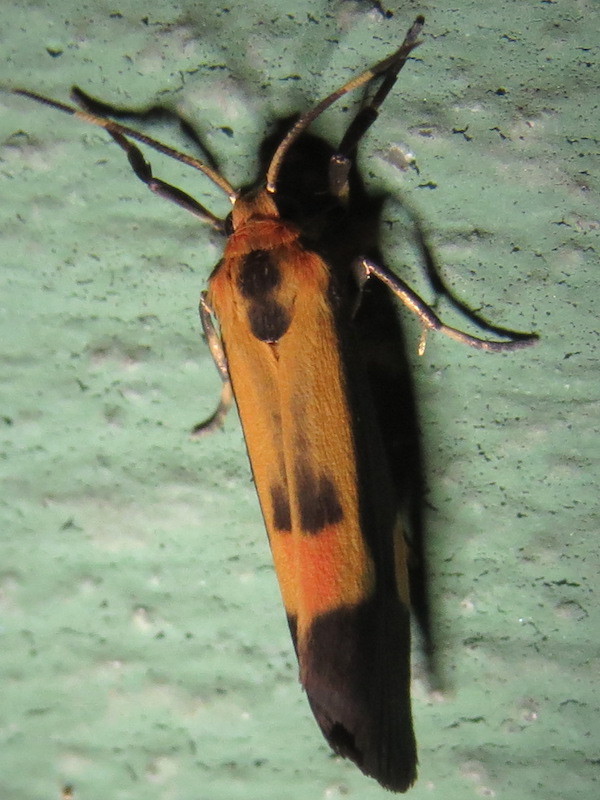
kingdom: Animalia
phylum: Arthropoda
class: Insecta
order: Lepidoptera
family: Erebidae
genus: Cisthene
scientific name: Cisthene packardii
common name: Packard's lichen moth
